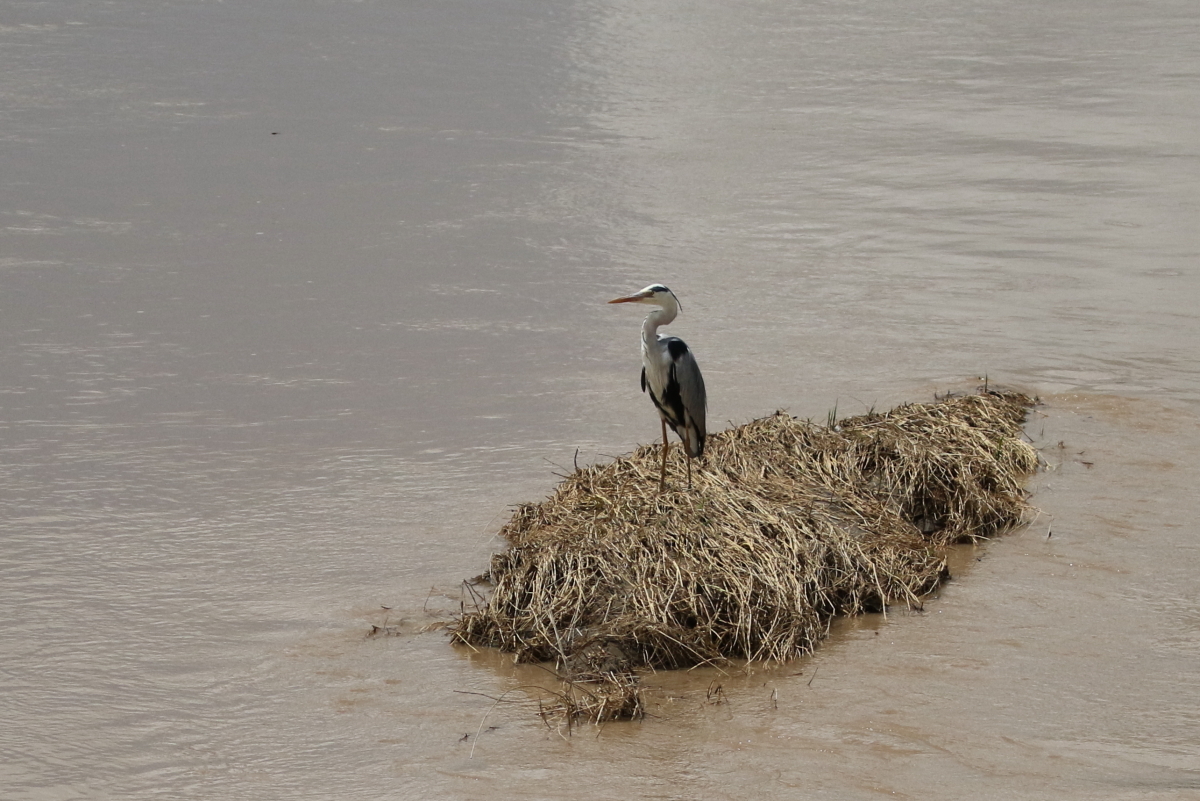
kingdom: Animalia
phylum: Chordata
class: Aves
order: Pelecaniformes
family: Ardeidae
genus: Ardea
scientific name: Ardea cinerea
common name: Grey heron
